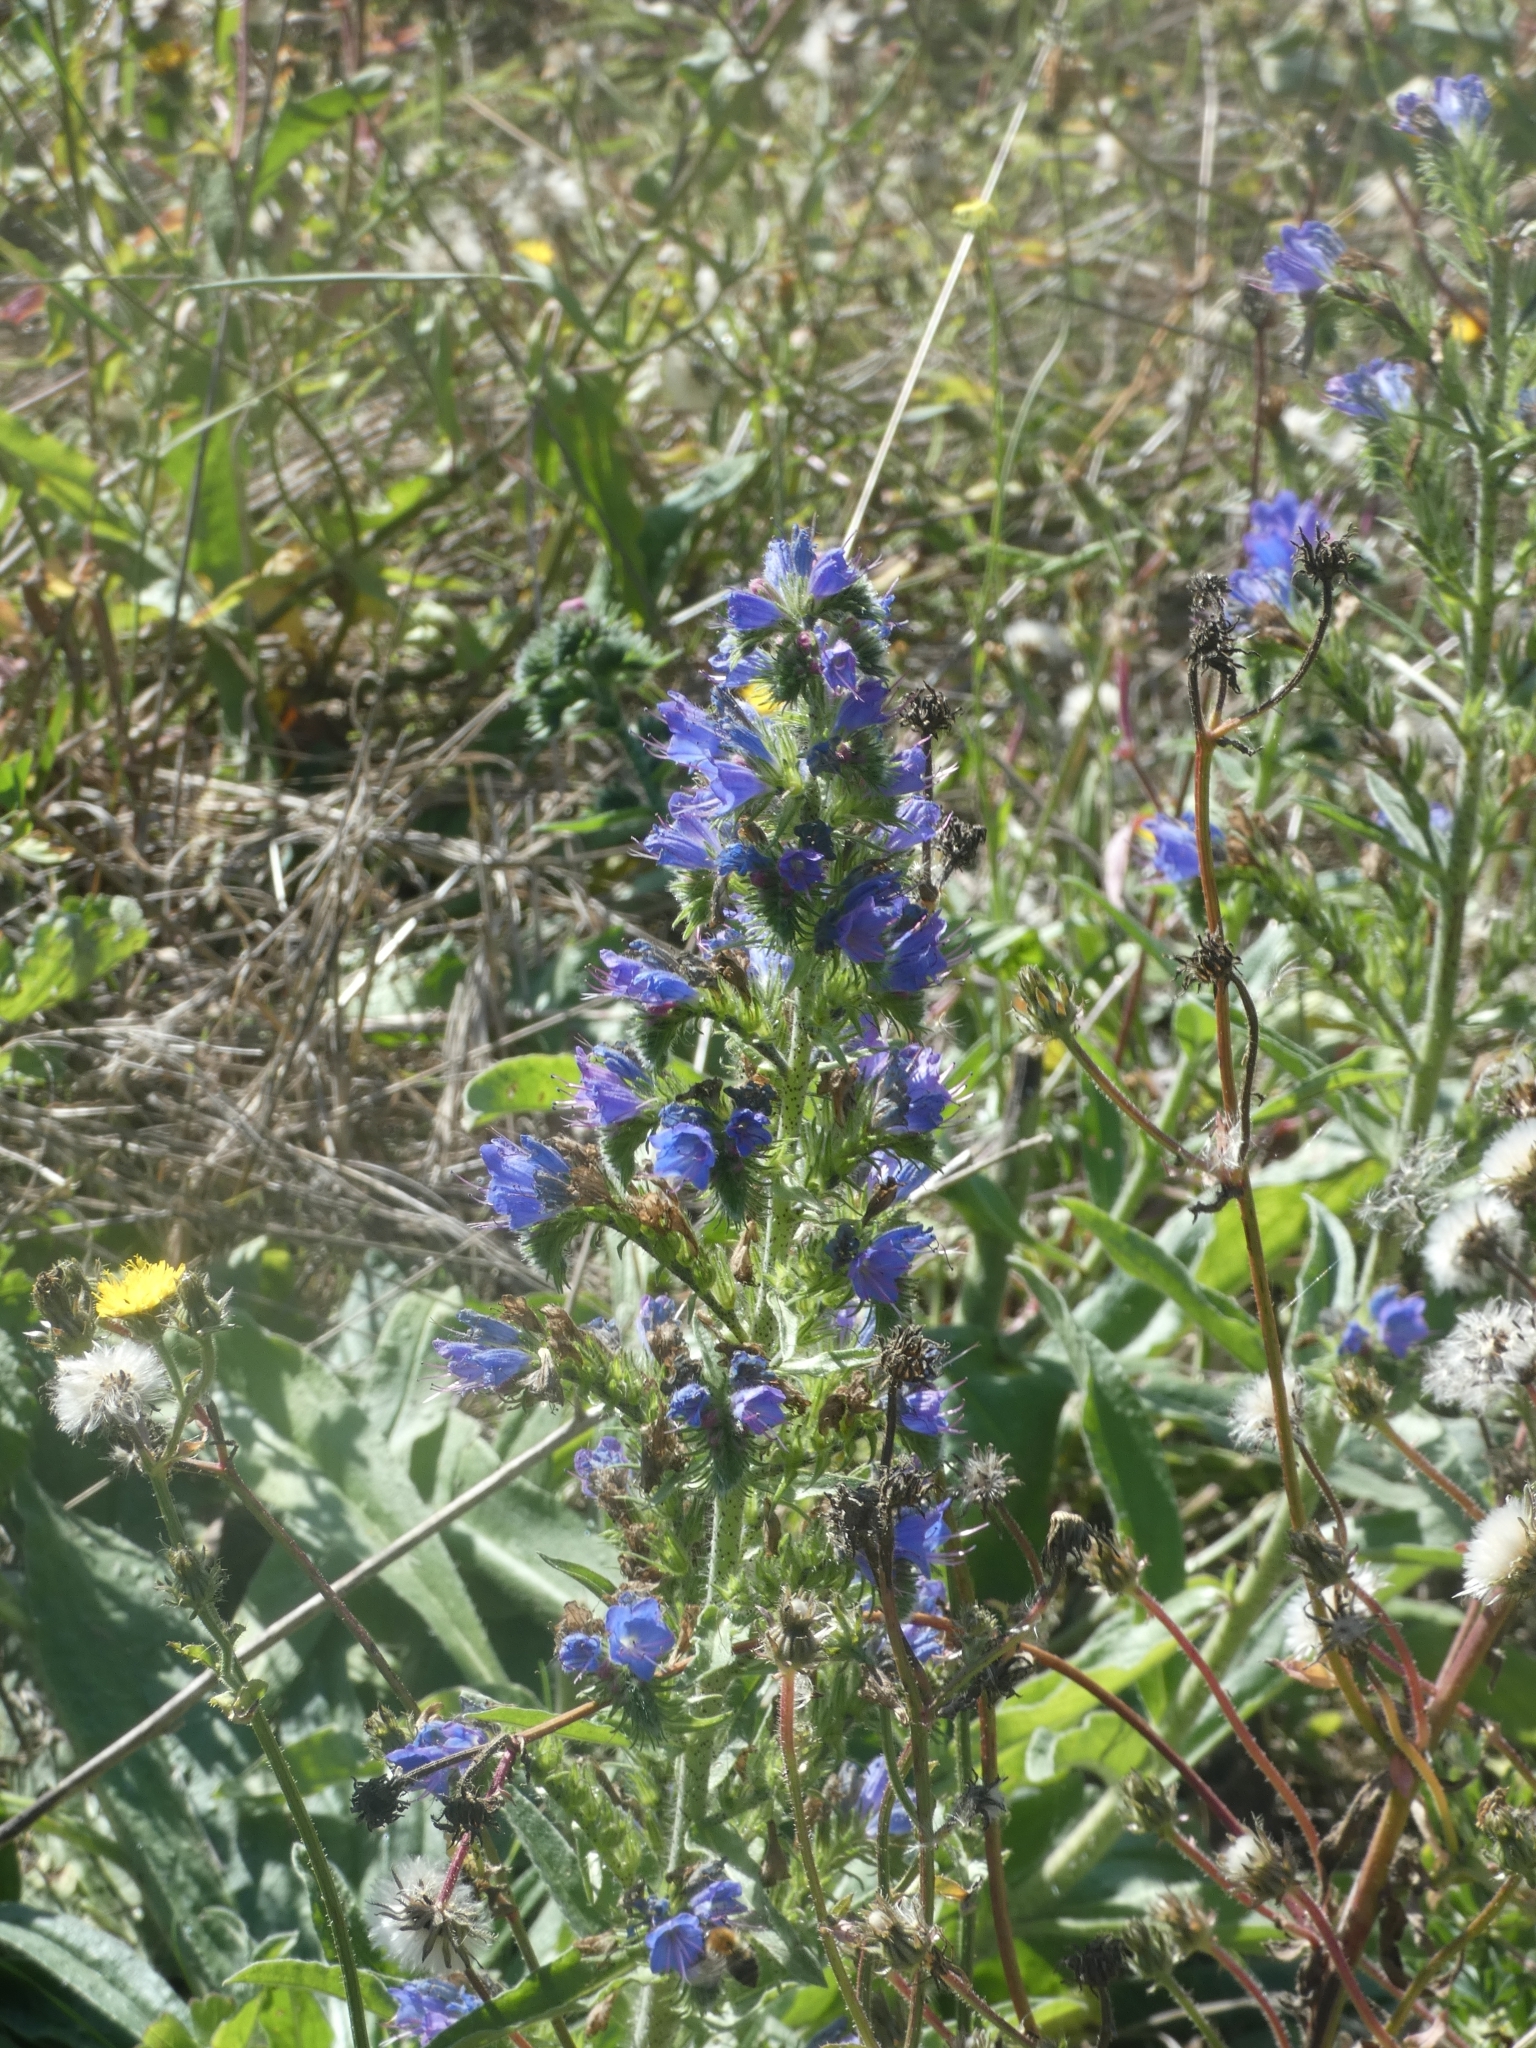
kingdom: Plantae
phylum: Tracheophyta
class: Magnoliopsida
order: Boraginales
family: Boraginaceae
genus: Echium
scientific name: Echium vulgare
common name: Common viper's bugloss
